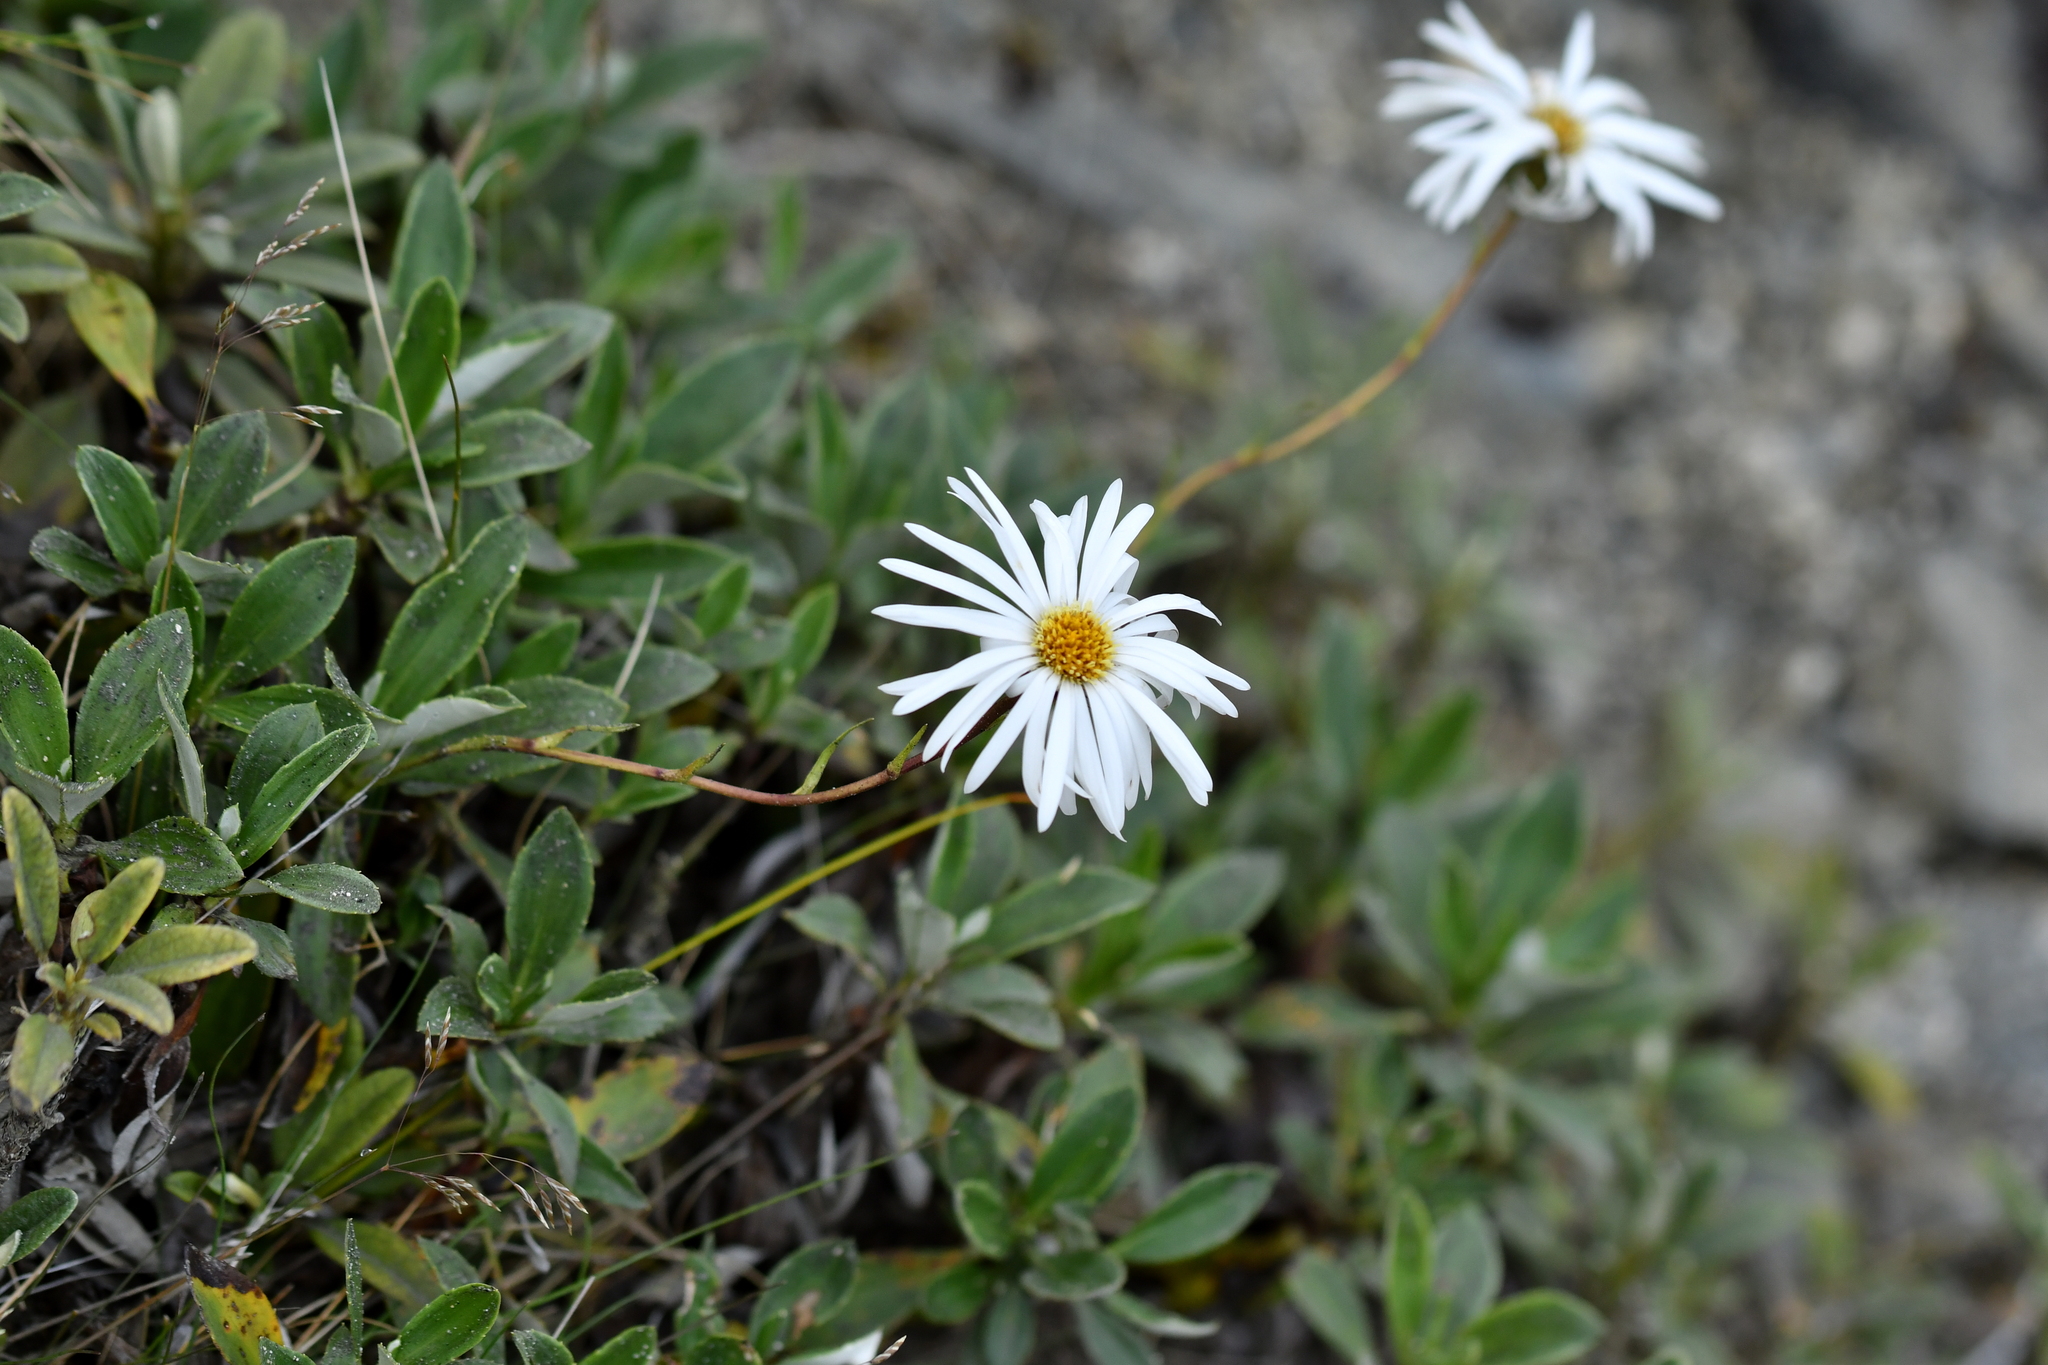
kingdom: Plantae
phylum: Tracheophyta
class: Magnoliopsida
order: Asterales
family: Asteraceae
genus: Celmisia
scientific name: Celmisia durietzii
